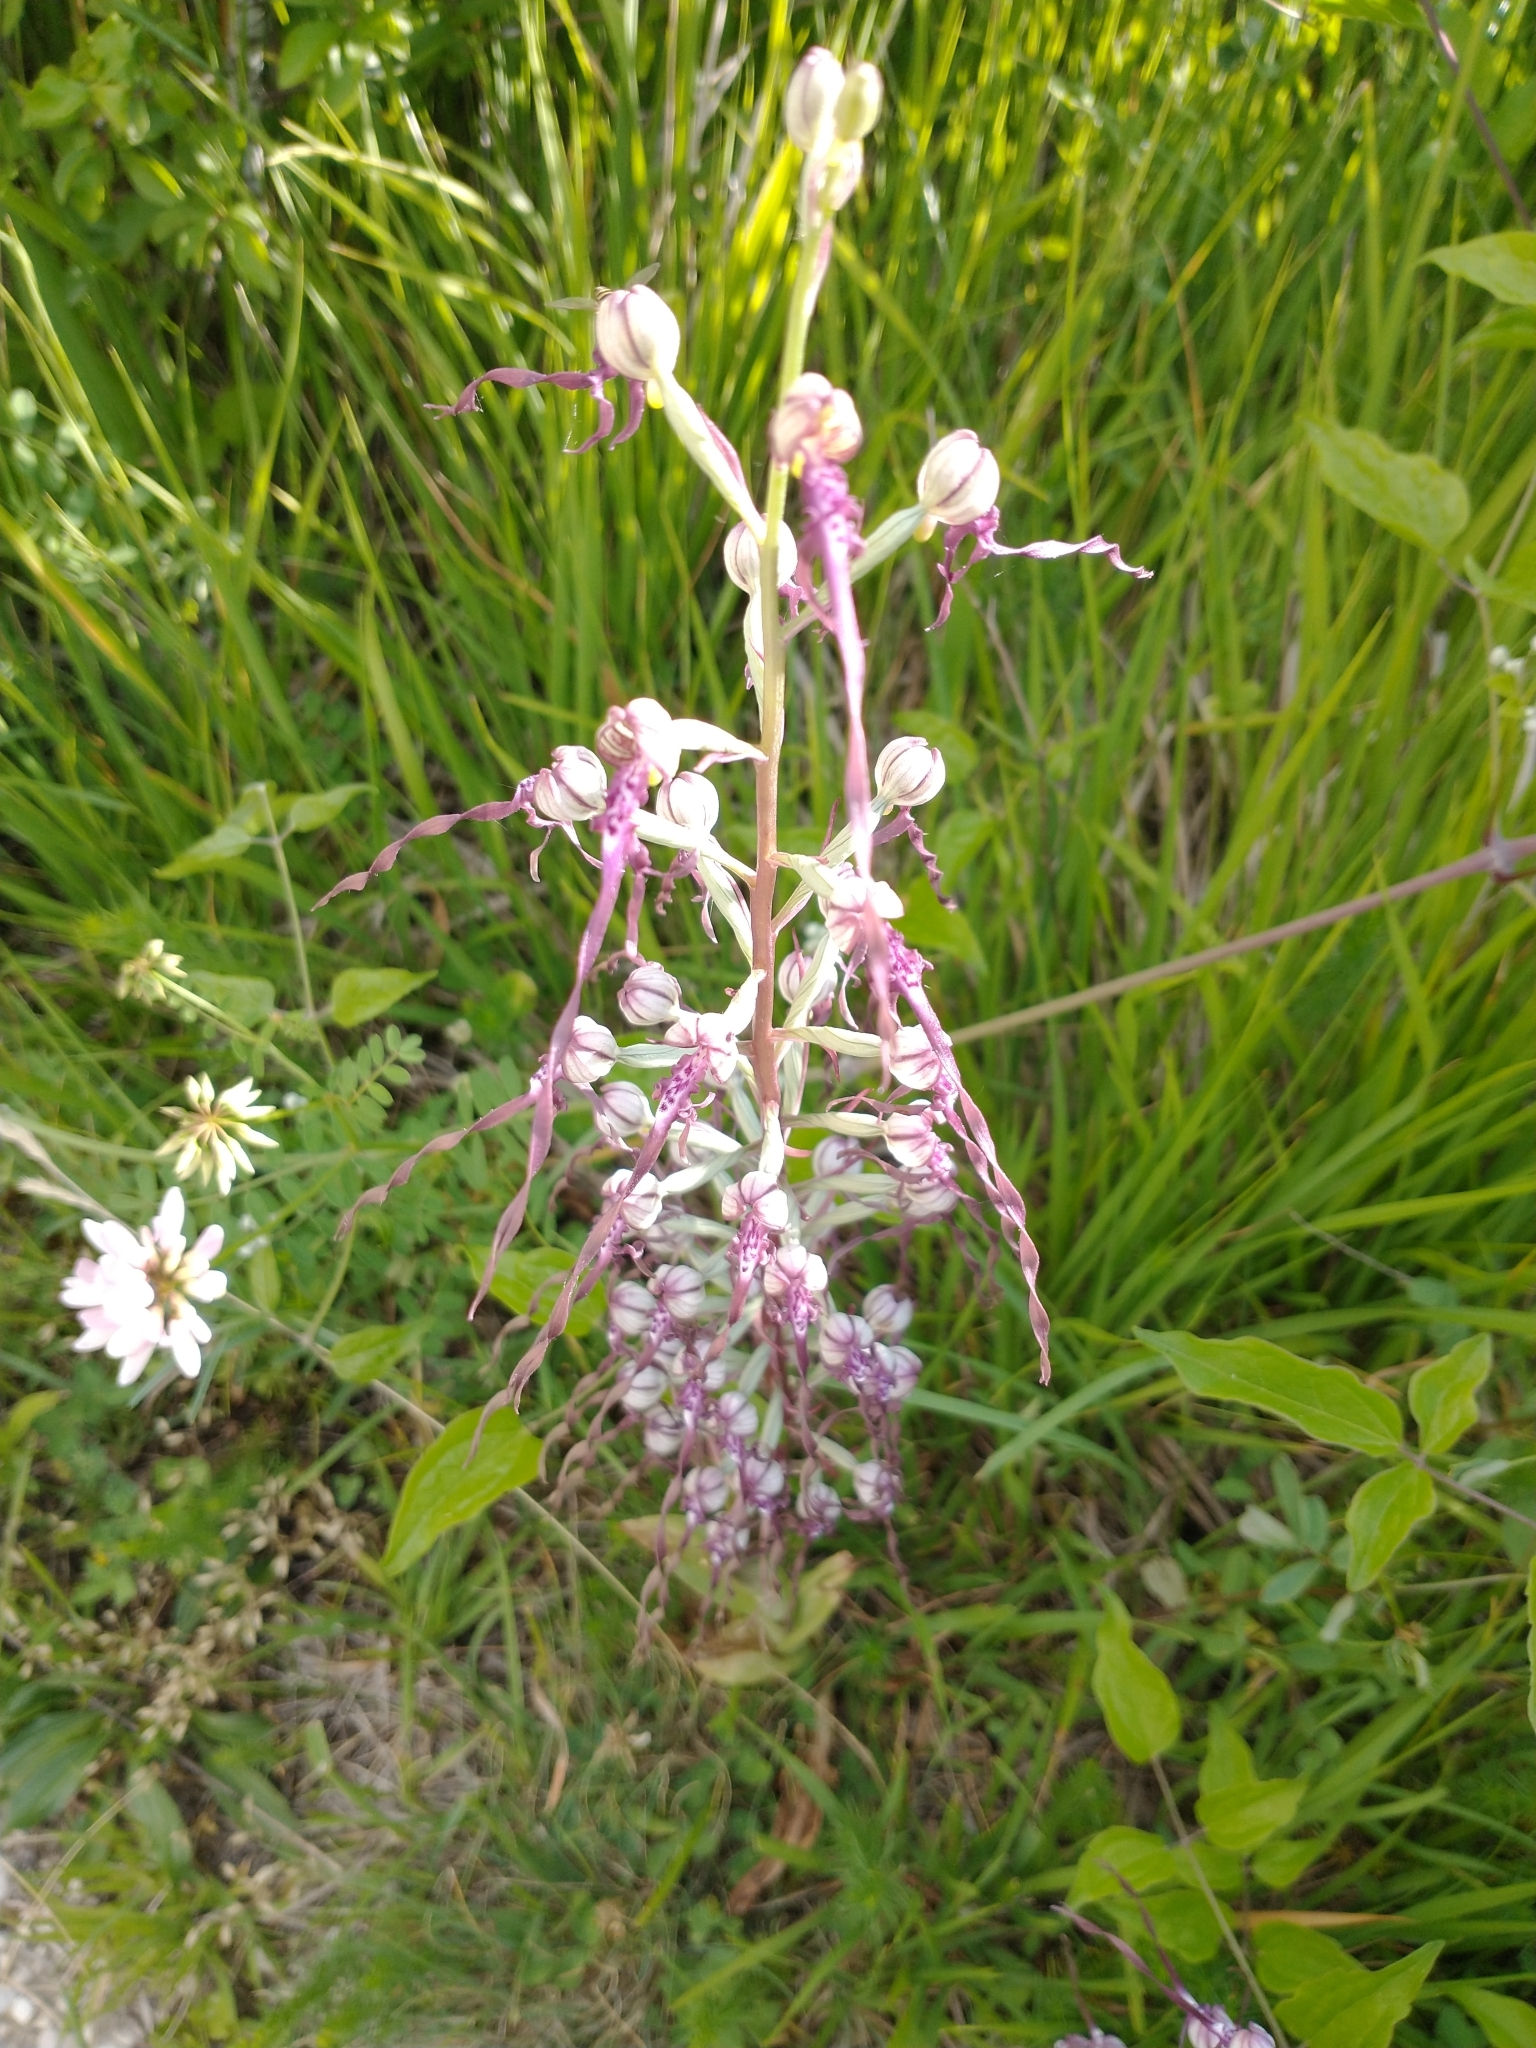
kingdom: Plantae
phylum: Tracheophyta
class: Liliopsida
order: Asparagales
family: Orchidaceae
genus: Himantoglossum
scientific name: Himantoglossum adriaticum
